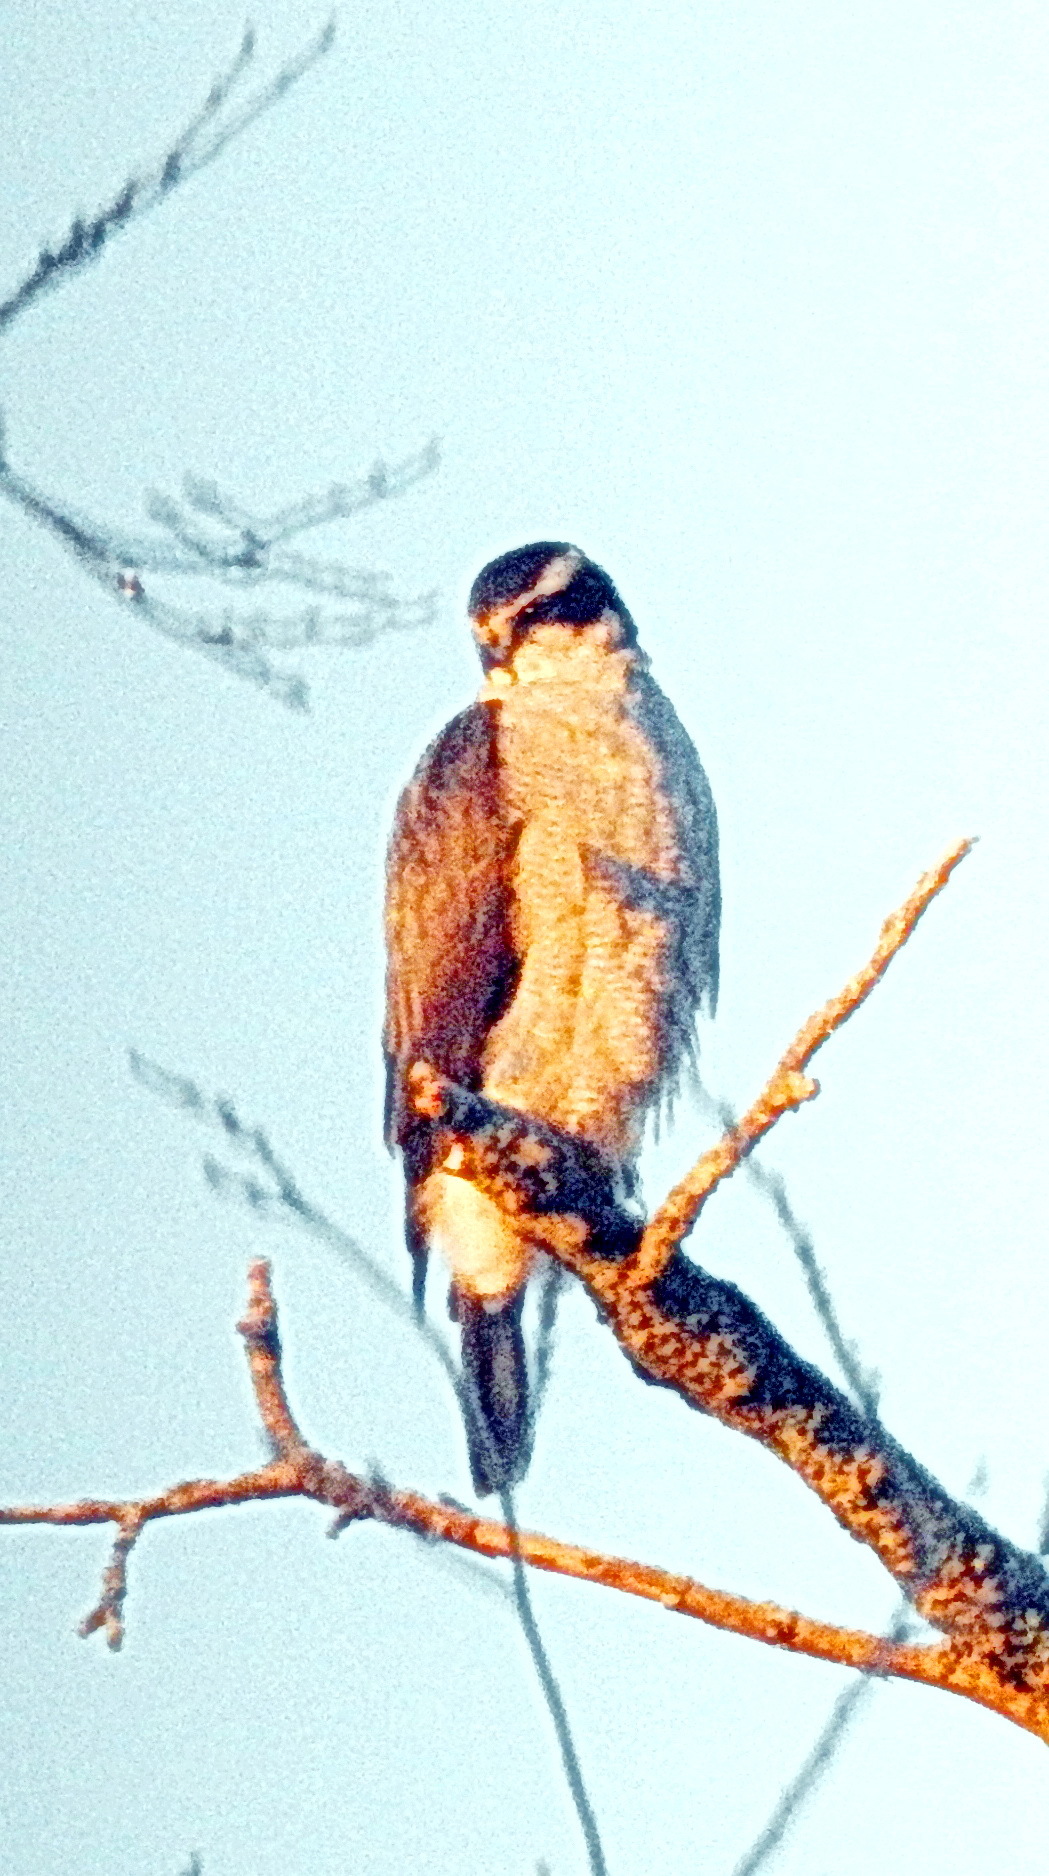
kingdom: Animalia
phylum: Chordata
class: Aves
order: Accipitriformes
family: Accipitridae
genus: Accipiter
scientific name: Accipiter gentilis
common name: Northern goshawk
